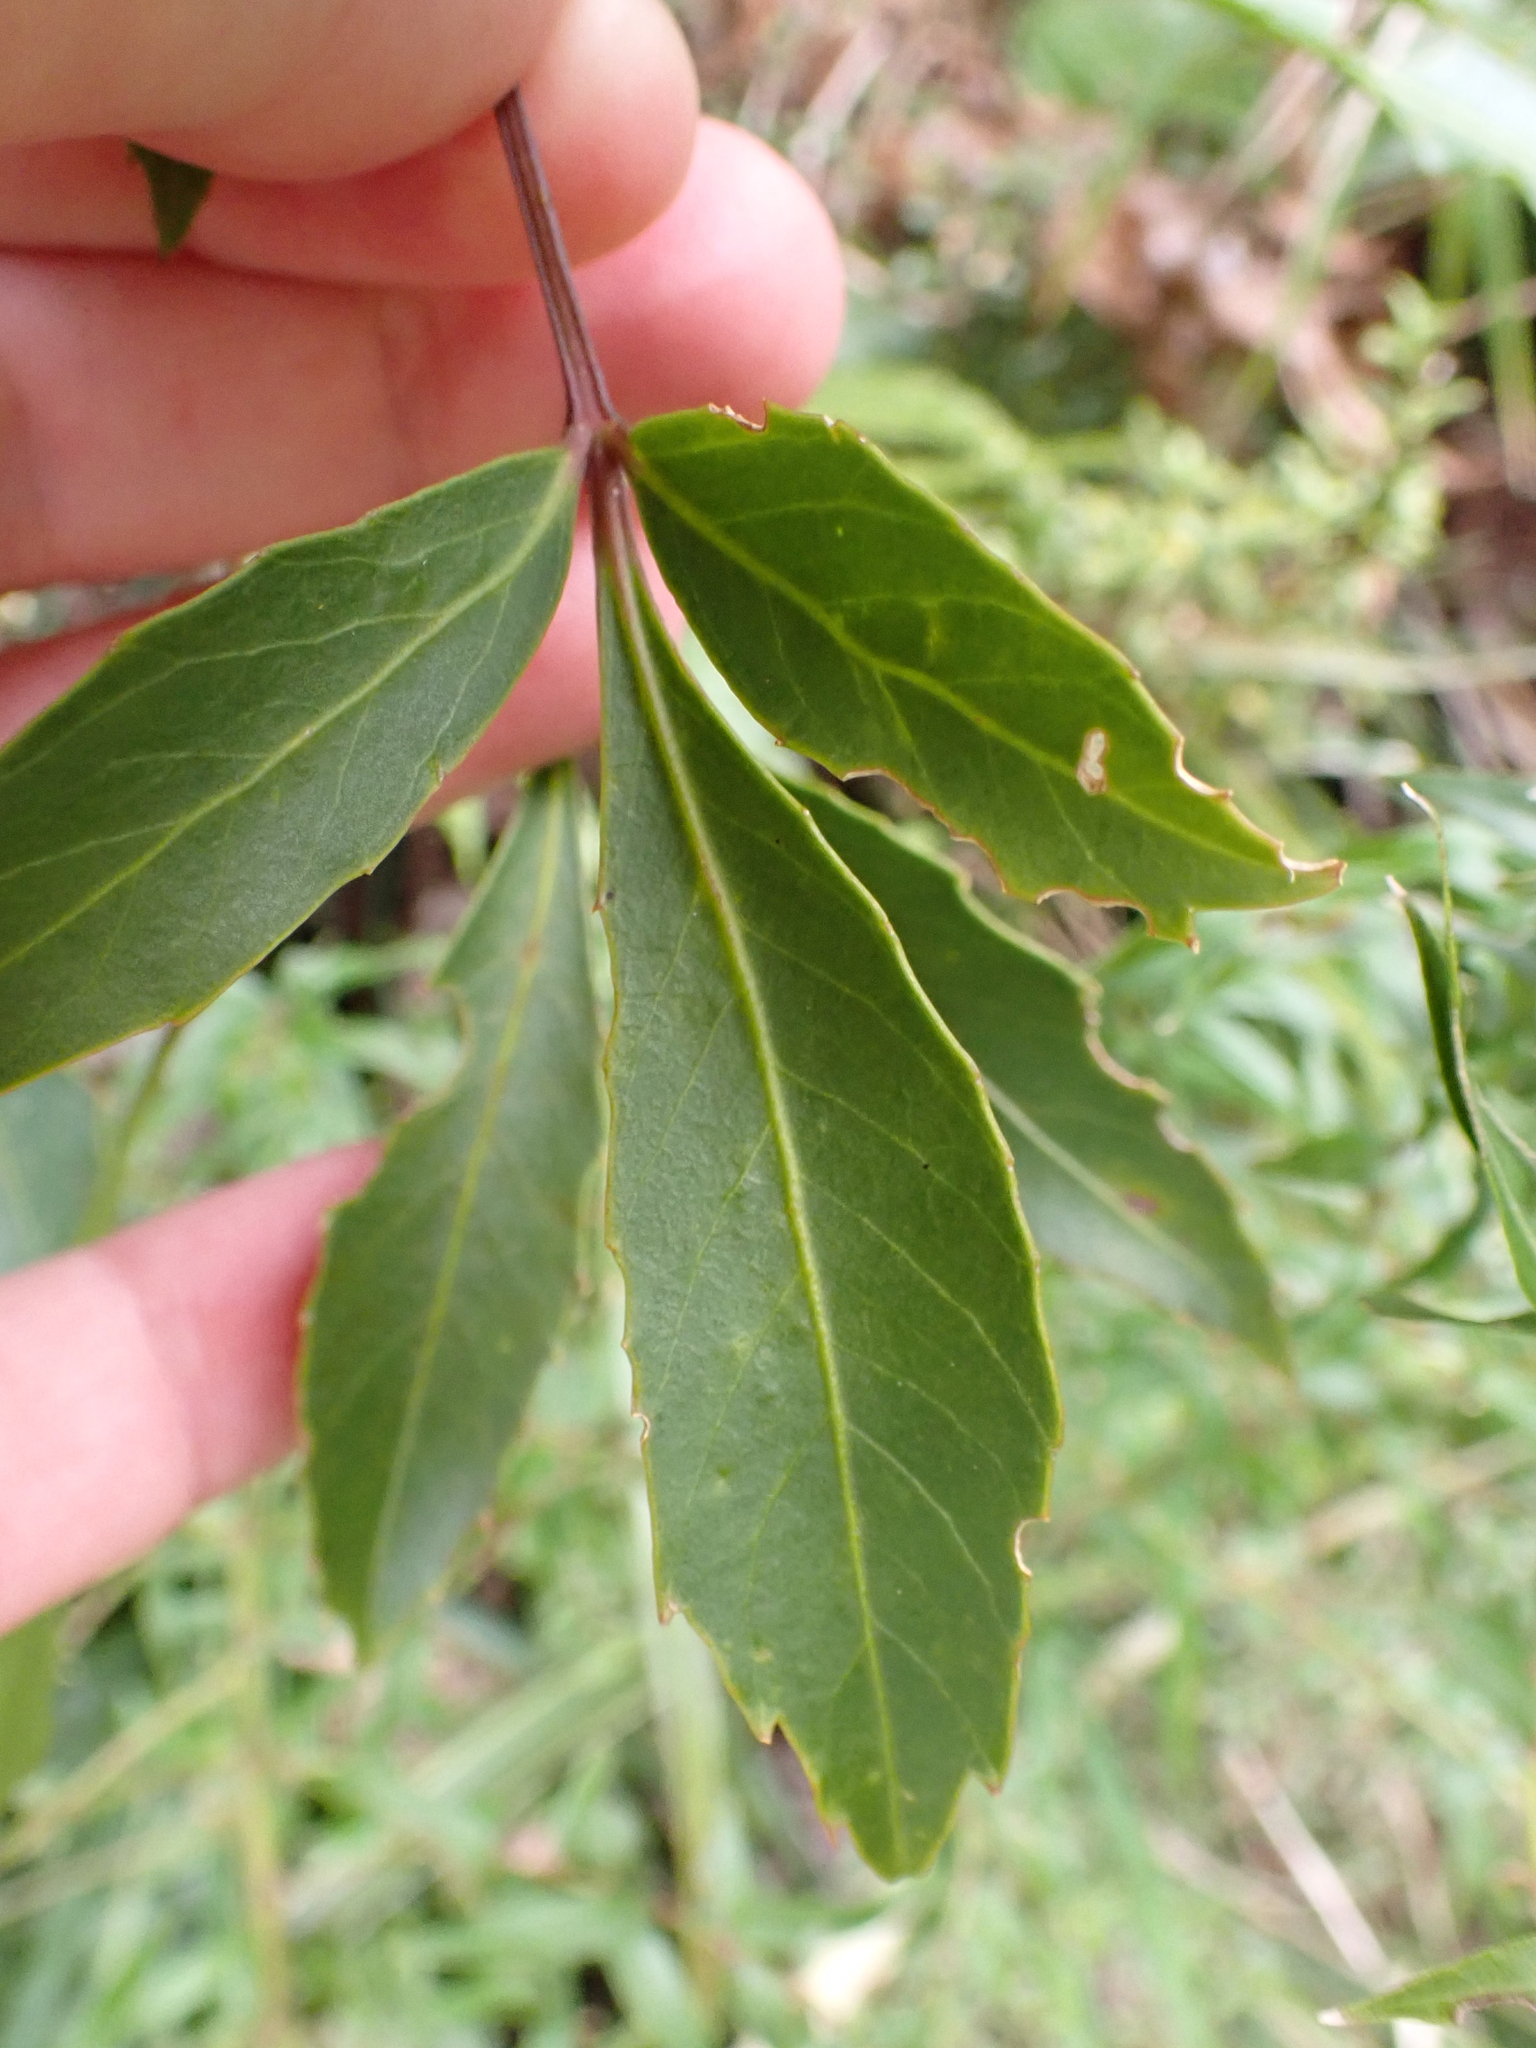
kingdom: Plantae
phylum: Tracheophyta
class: Magnoliopsida
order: Apiales
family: Araliaceae
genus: Raukaua
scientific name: Raukaua simplex
